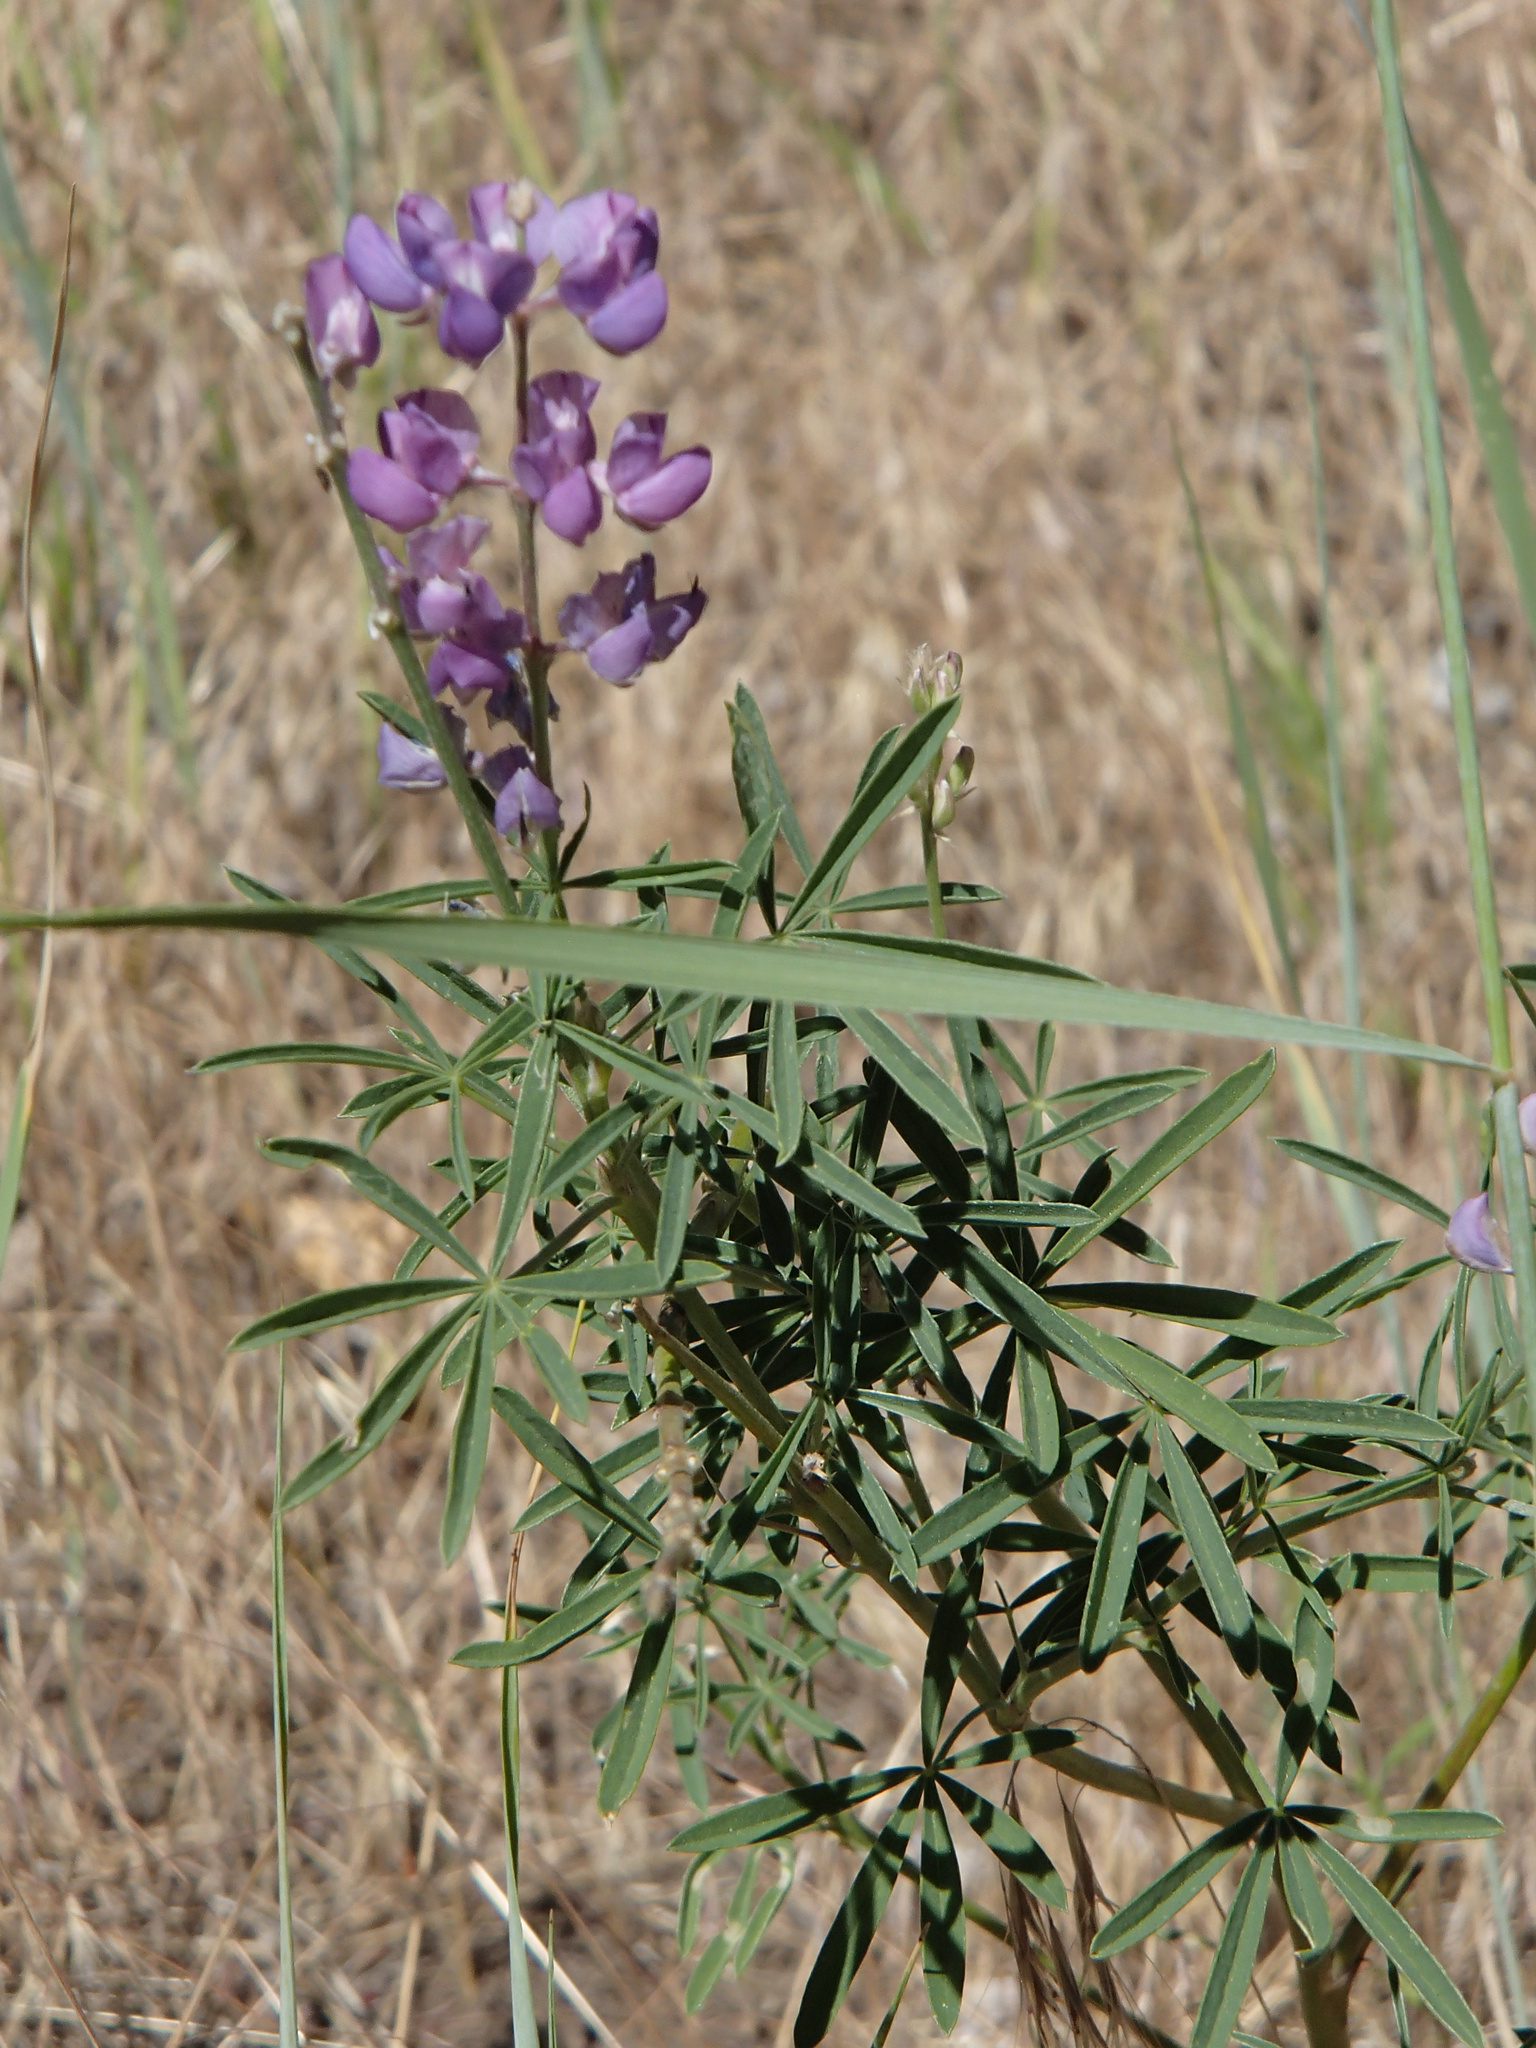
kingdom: Plantae
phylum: Tracheophyta
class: Magnoliopsida
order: Fabales
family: Fabaceae
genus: Lupinus
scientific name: Lupinus arbustus
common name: Montana lupine
